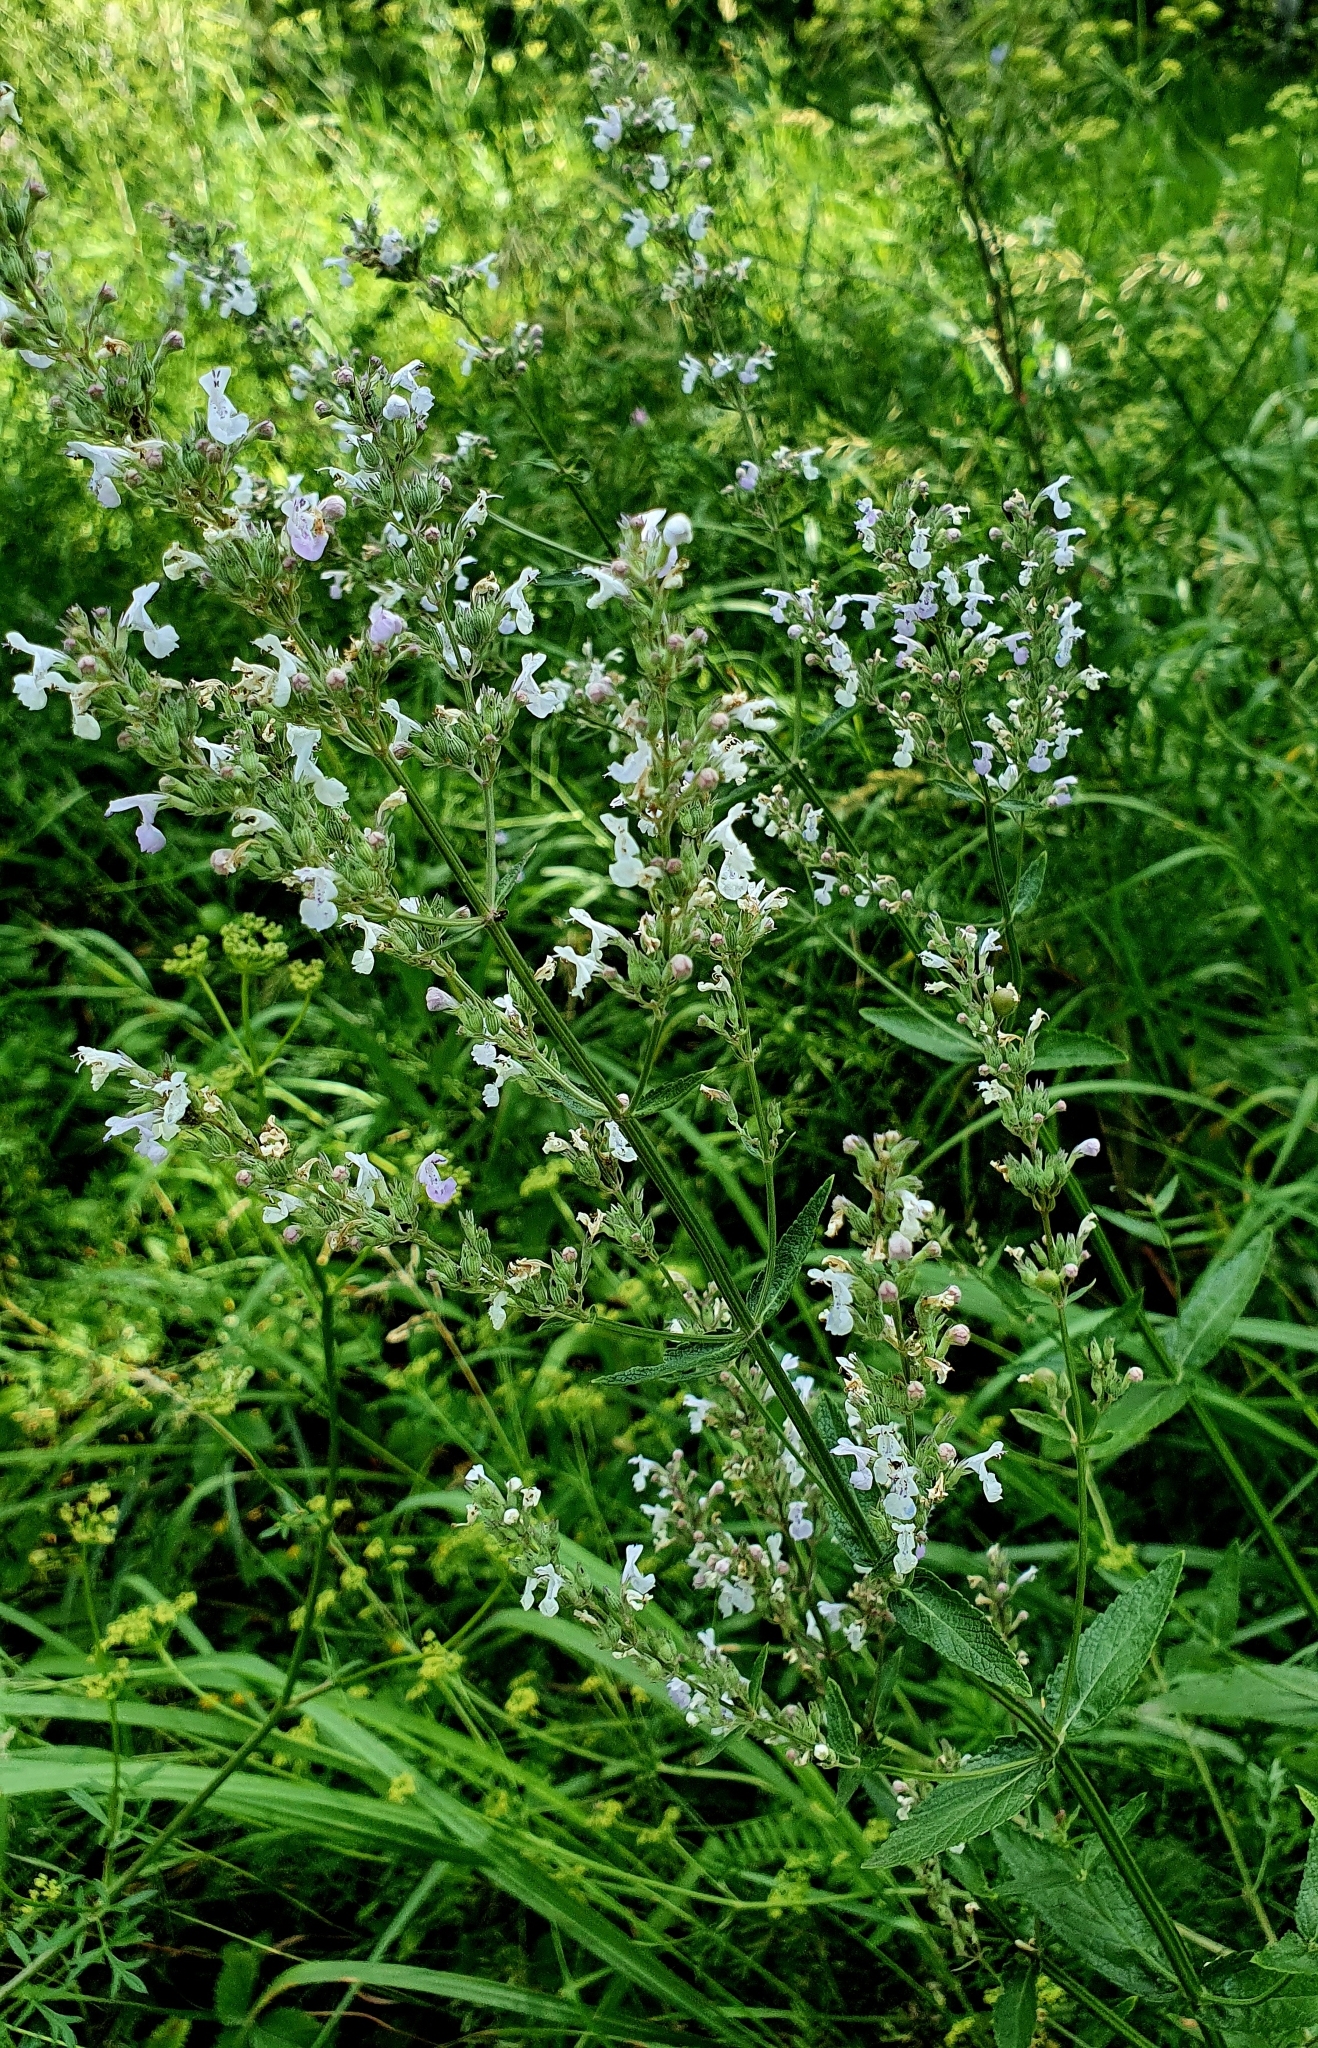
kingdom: Plantae
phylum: Tracheophyta
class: Magnoliopsida
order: Lamiales
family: Lamiaceae
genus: Nepeta
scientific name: Nepeta nuda
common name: Hairless catmint
